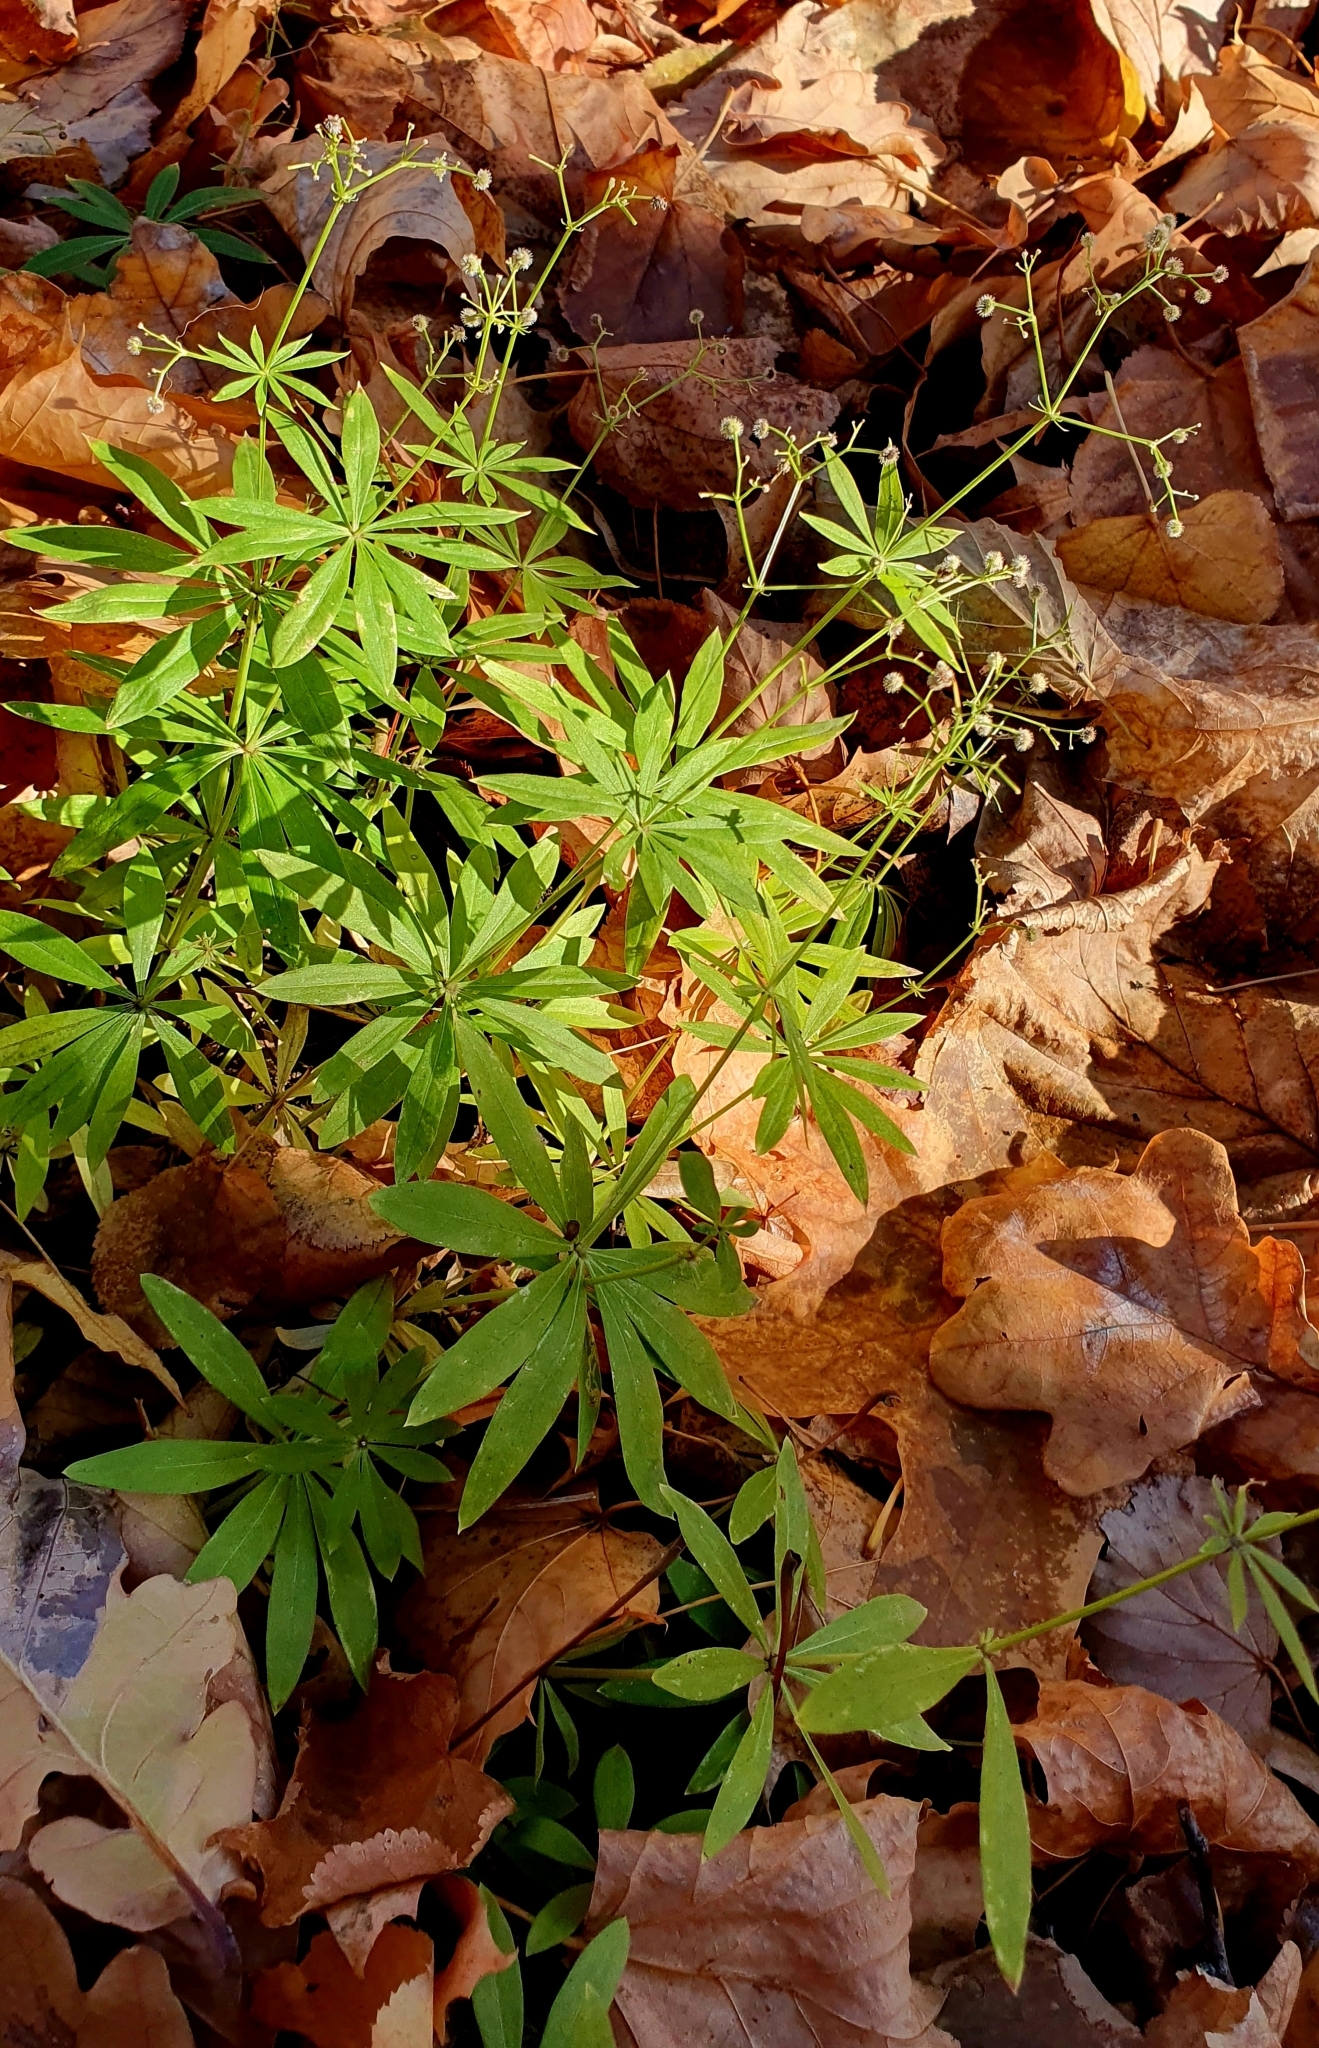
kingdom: Plantae
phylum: Tracheophyta
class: Magnoliopsida
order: Gentianales
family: Rubiaceae
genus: Galium
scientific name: Galium odoratum
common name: Sweet woodruff
